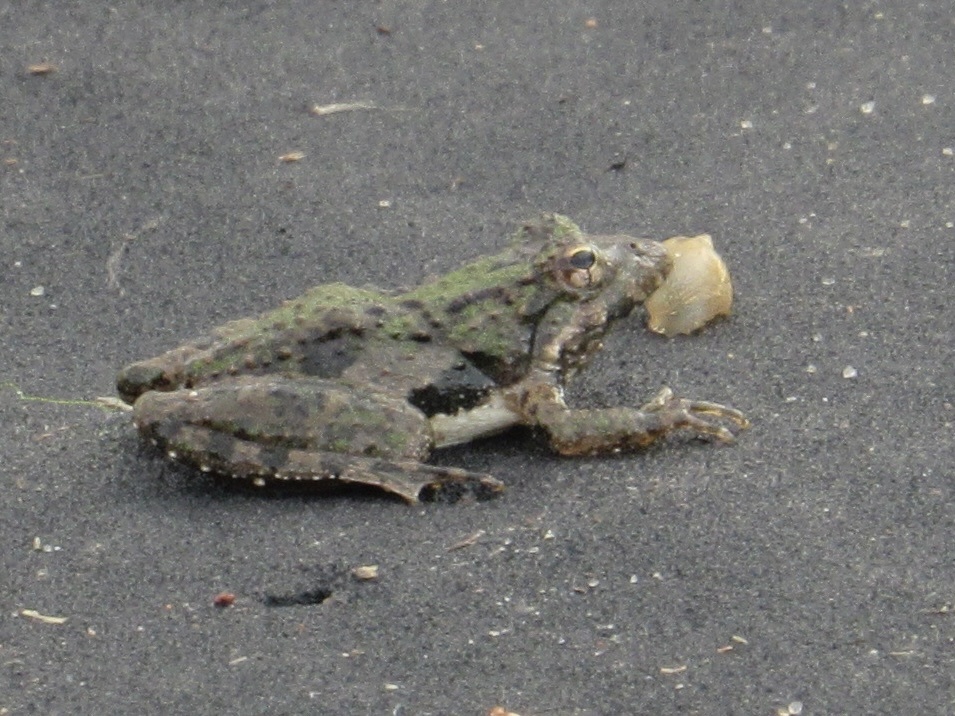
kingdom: Animalia
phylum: Chordata
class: Amphibia
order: Anura
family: Hylidae
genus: Acris
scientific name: Acris blanchardi
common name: Blanchard's cricket frog
